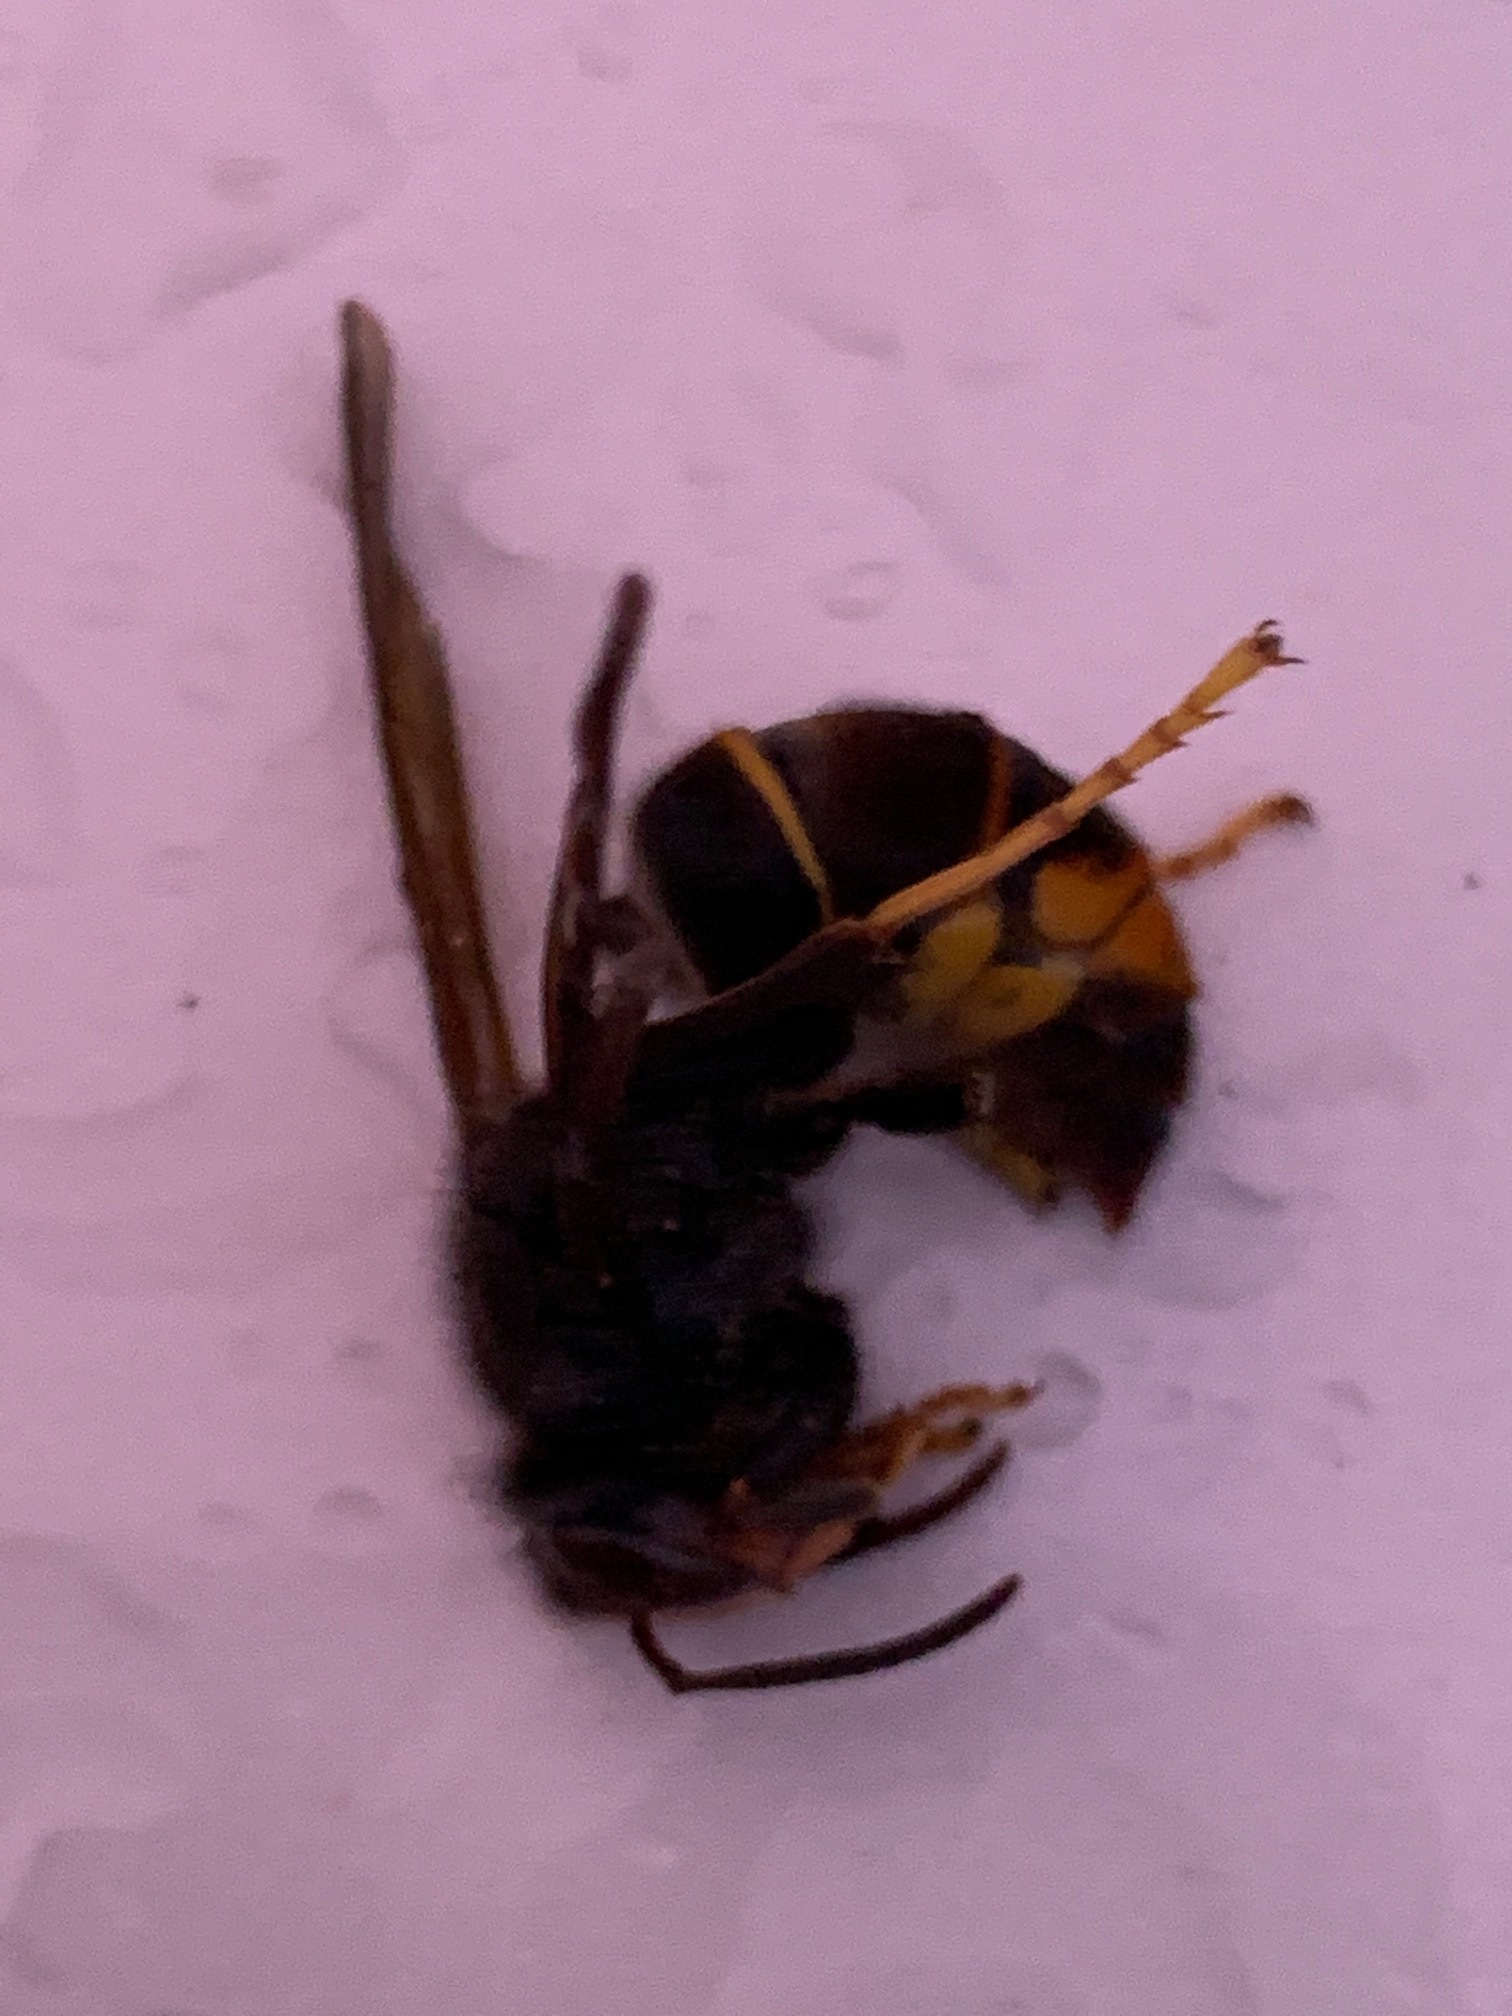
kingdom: Animalia
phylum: Arthropoda
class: Insecta
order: Hymenoptera
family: Vespidae
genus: Vespa
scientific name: Vespa velutina
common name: Asian hornet
